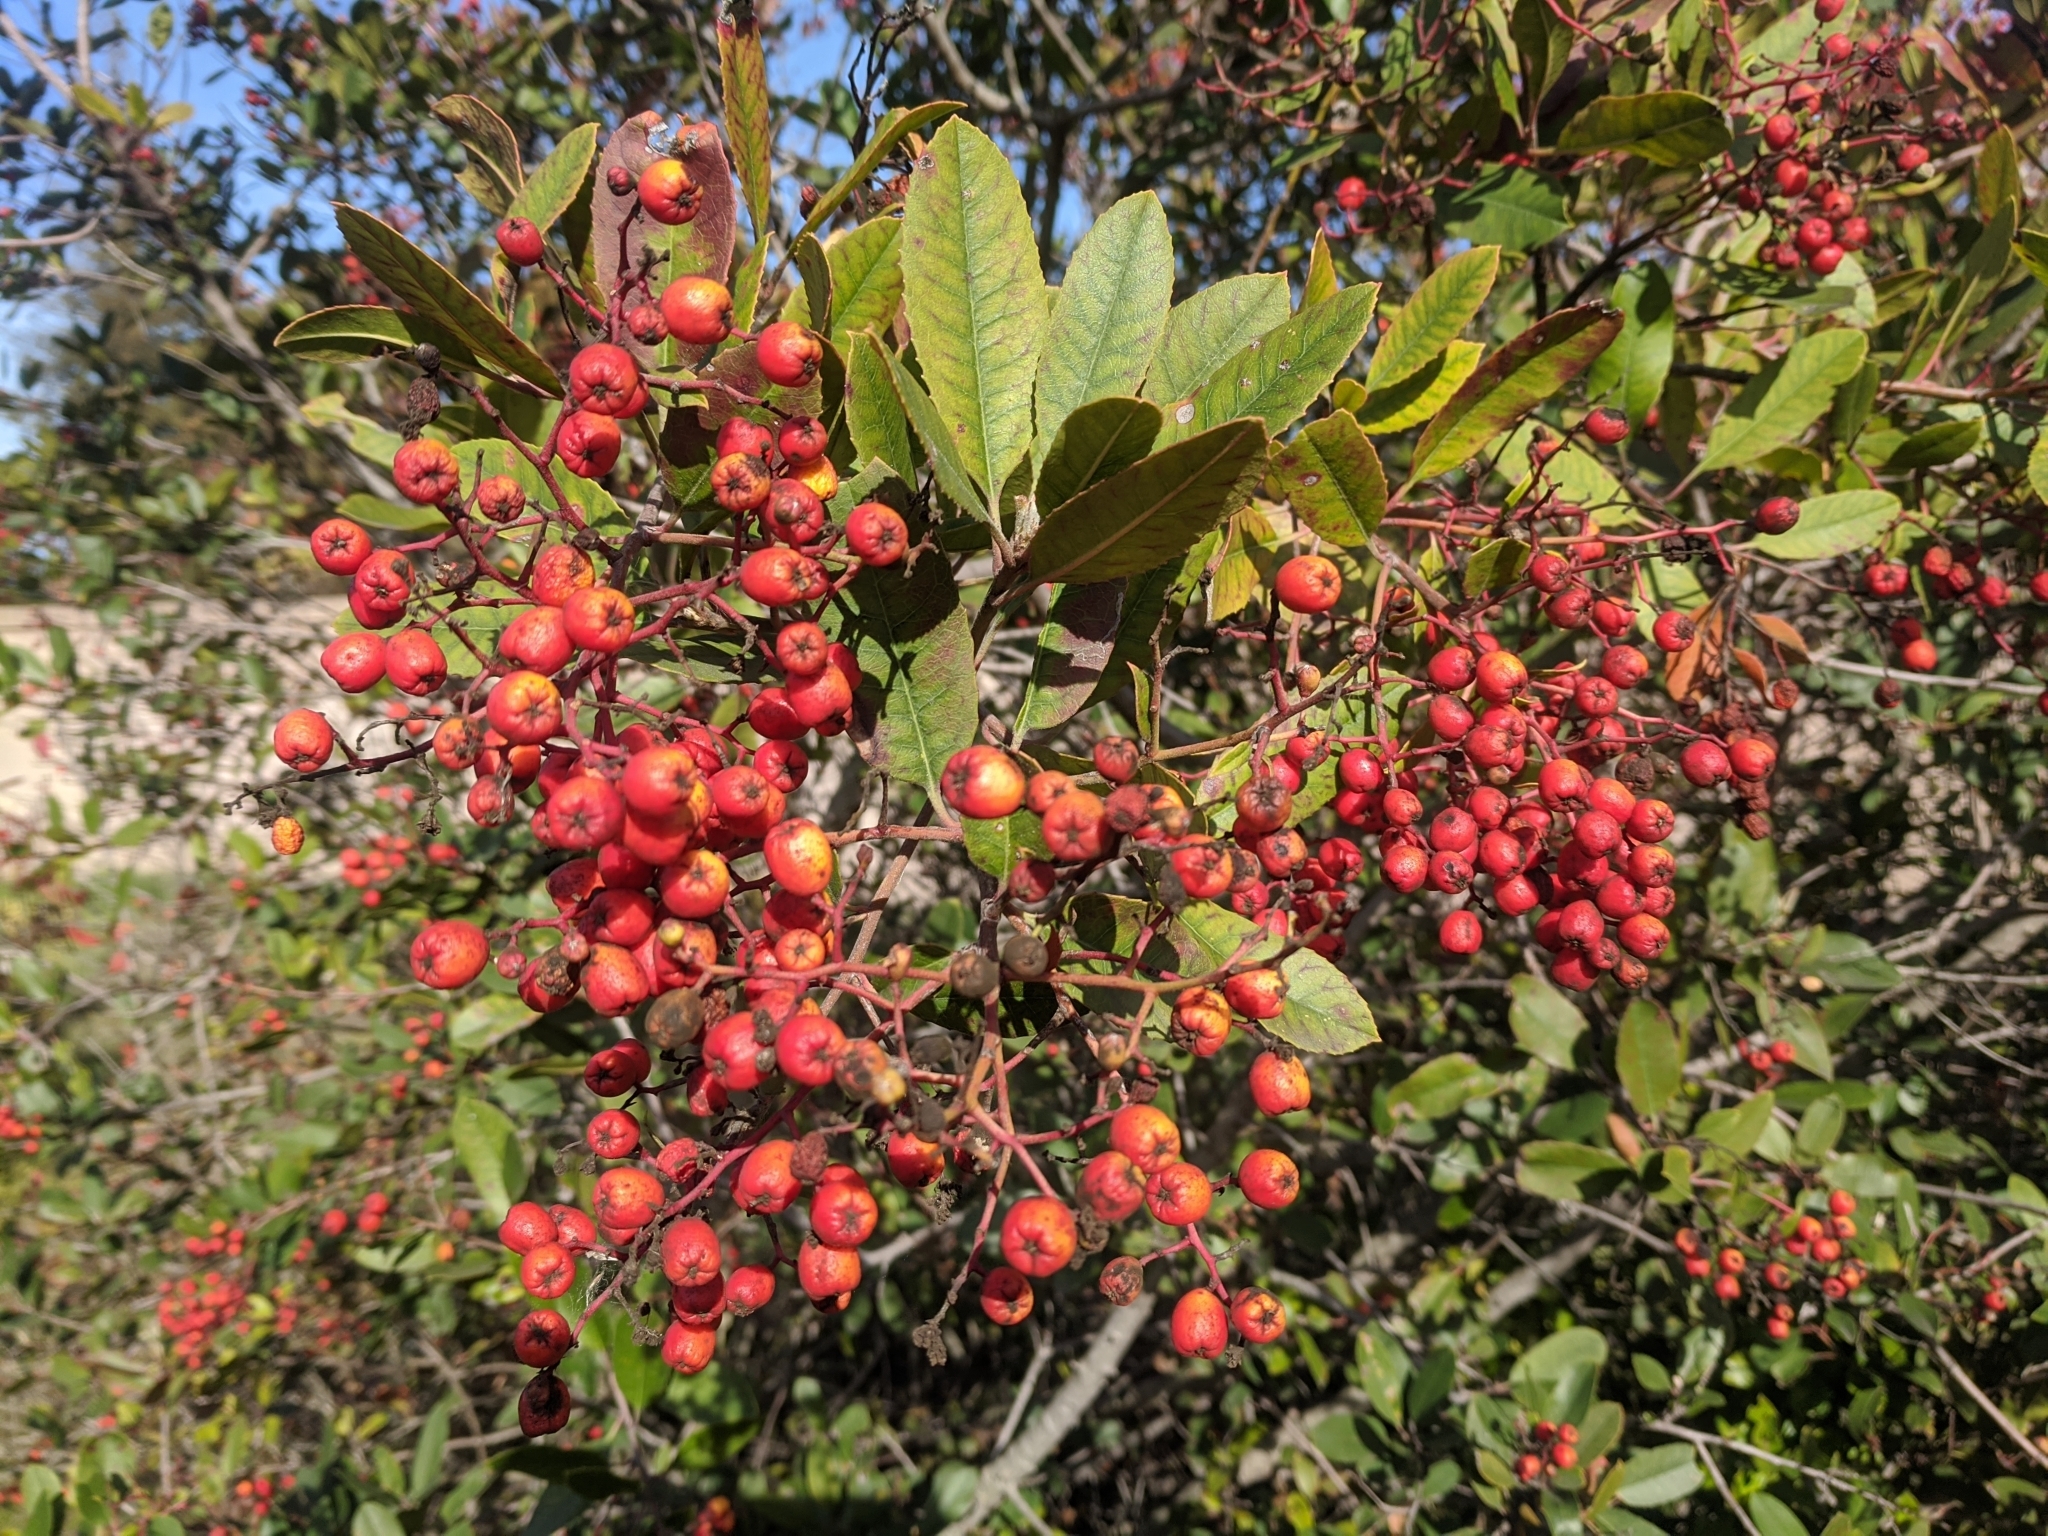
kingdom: Plantae
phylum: Tracheophyta
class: Magnoliopsida
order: Rosales
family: Rosaceae
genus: Heteromeles
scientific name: Heteromeles arbutifolia
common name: California-holly
